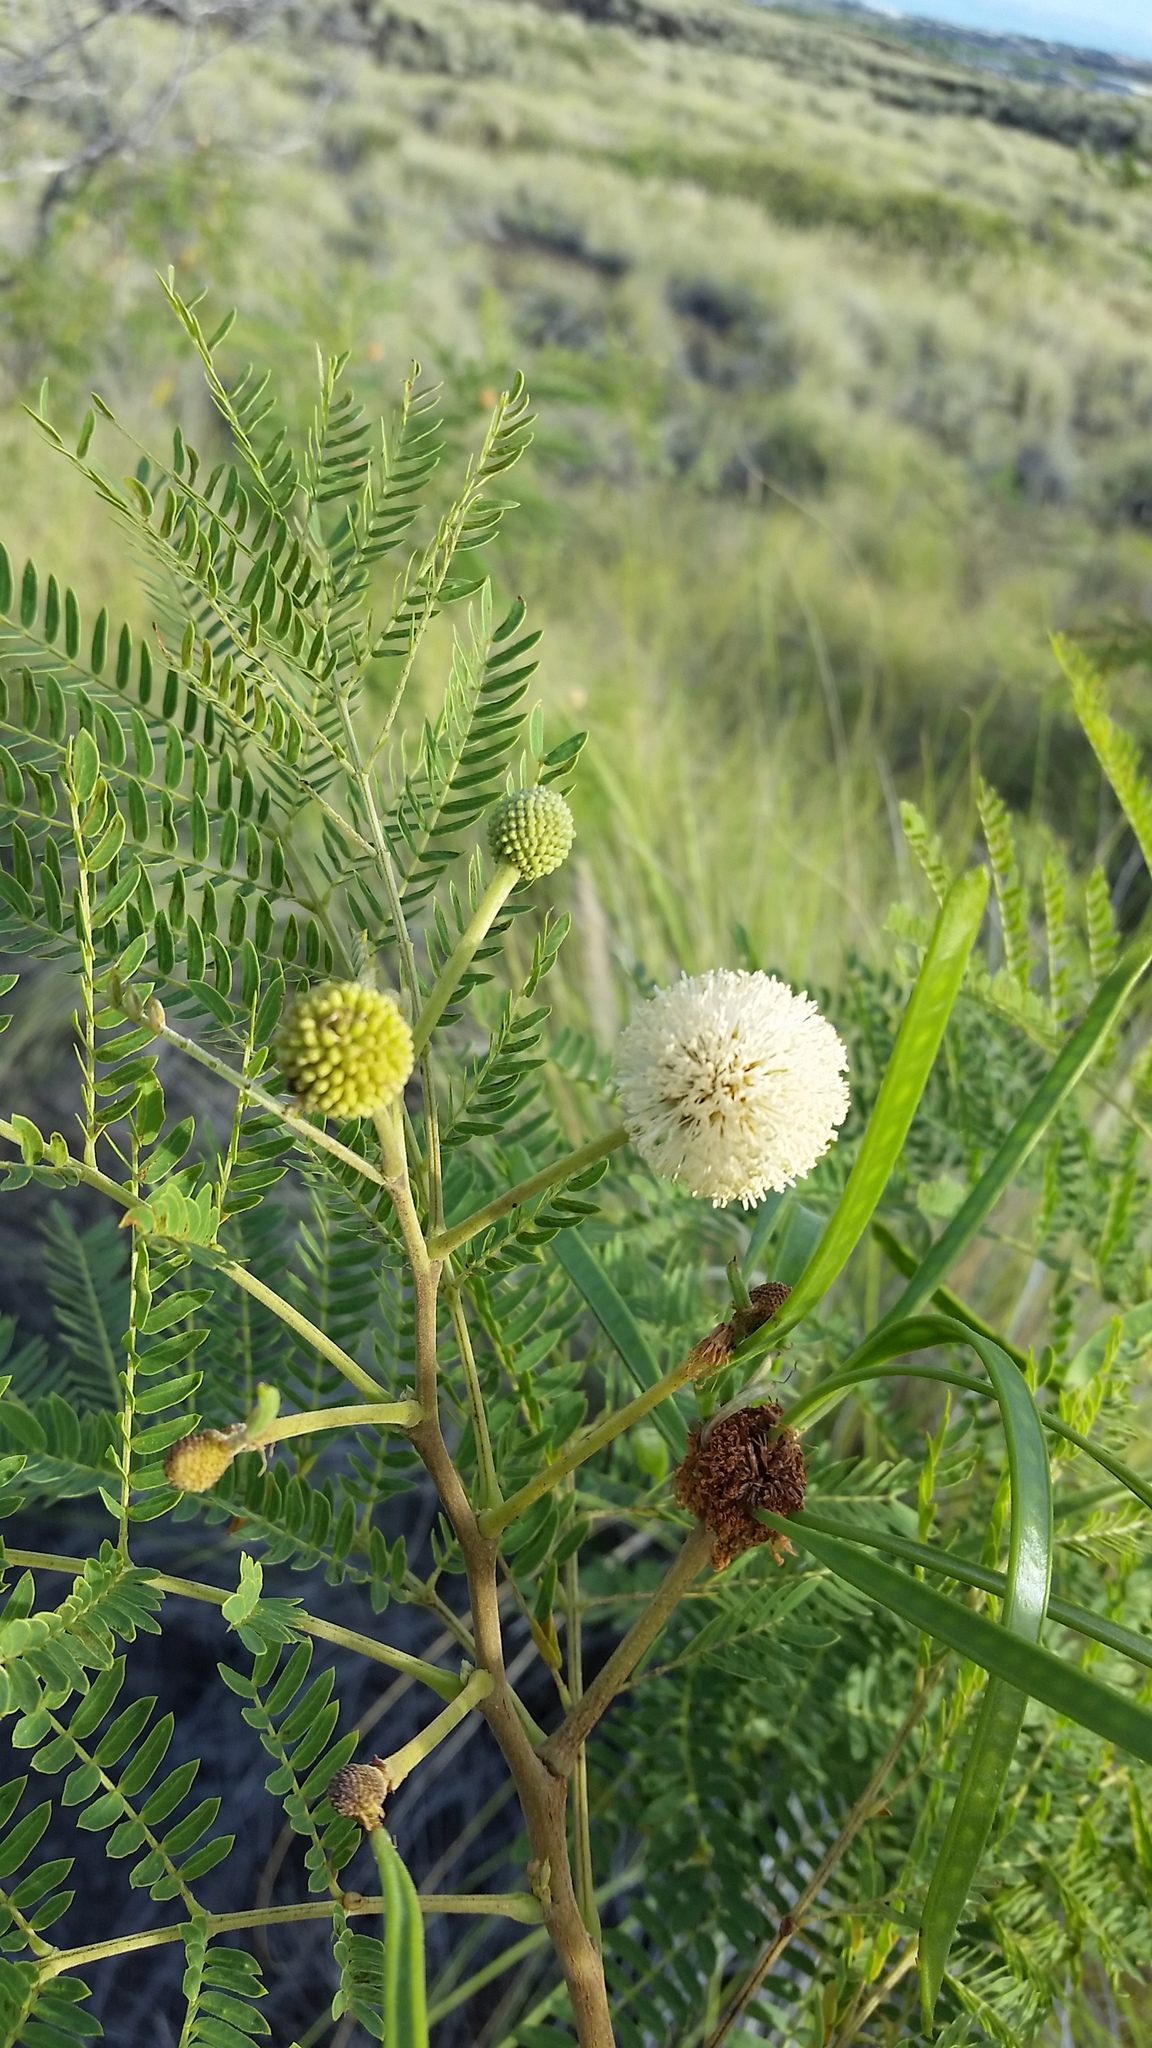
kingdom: Plantae
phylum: Tracheophyta
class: Magnoliopsida
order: Fabales
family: Fabaceae
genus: Leucaena
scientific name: Leucaena leucocephala
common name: White leadtree
